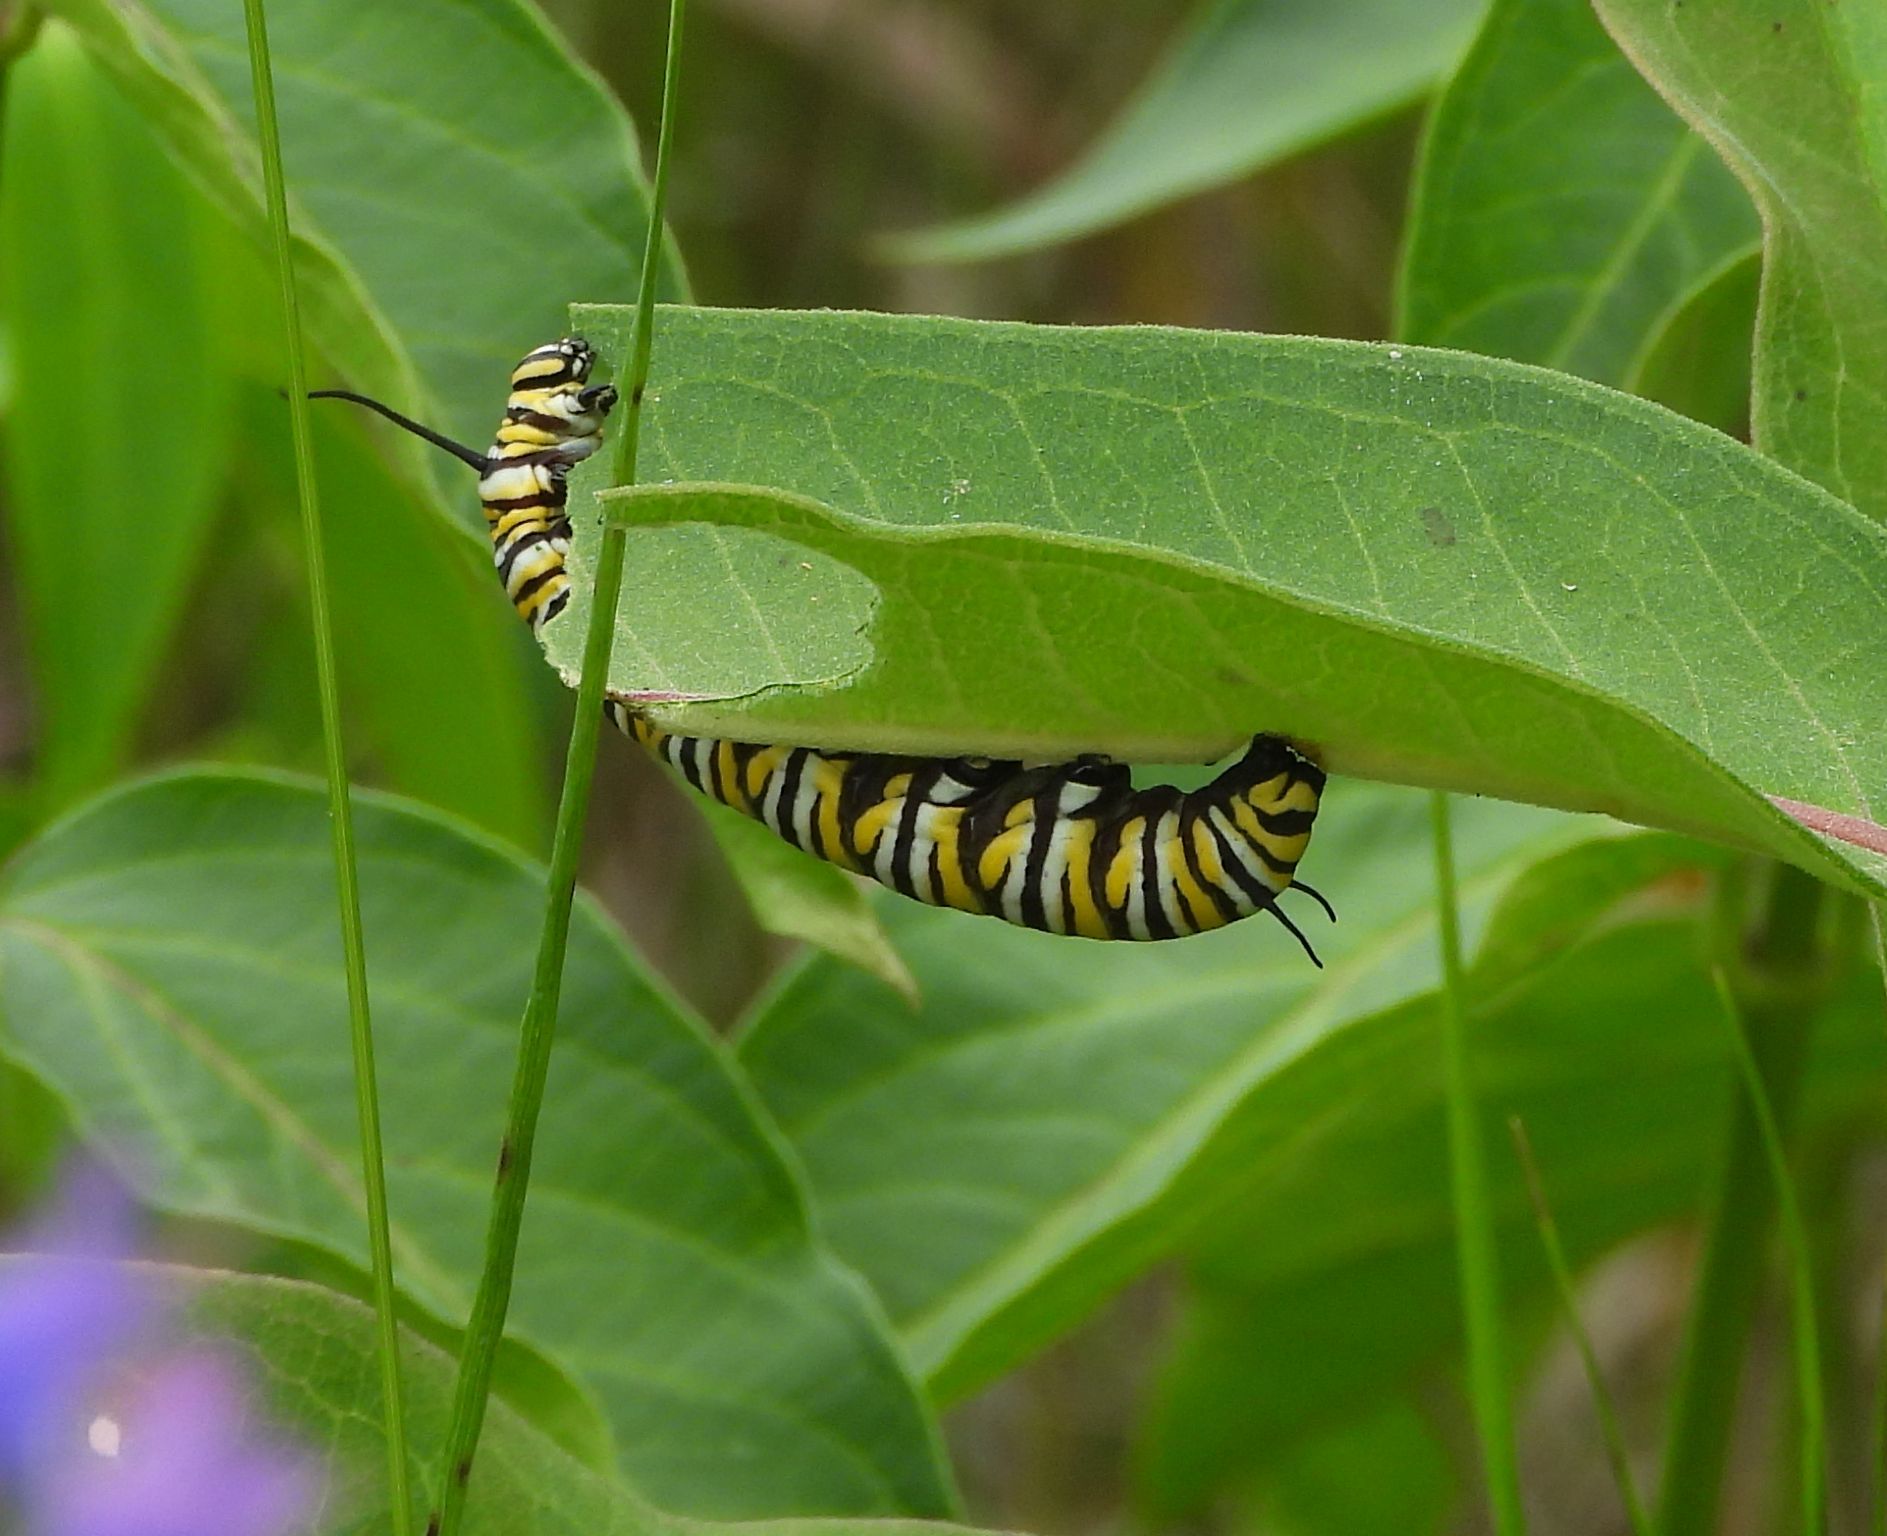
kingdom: Animalia
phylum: Arthropoda
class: Insecta
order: Lepidoptera
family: Nymphalidae
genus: Danaus
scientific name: Danaus plexippus
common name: Monarch
